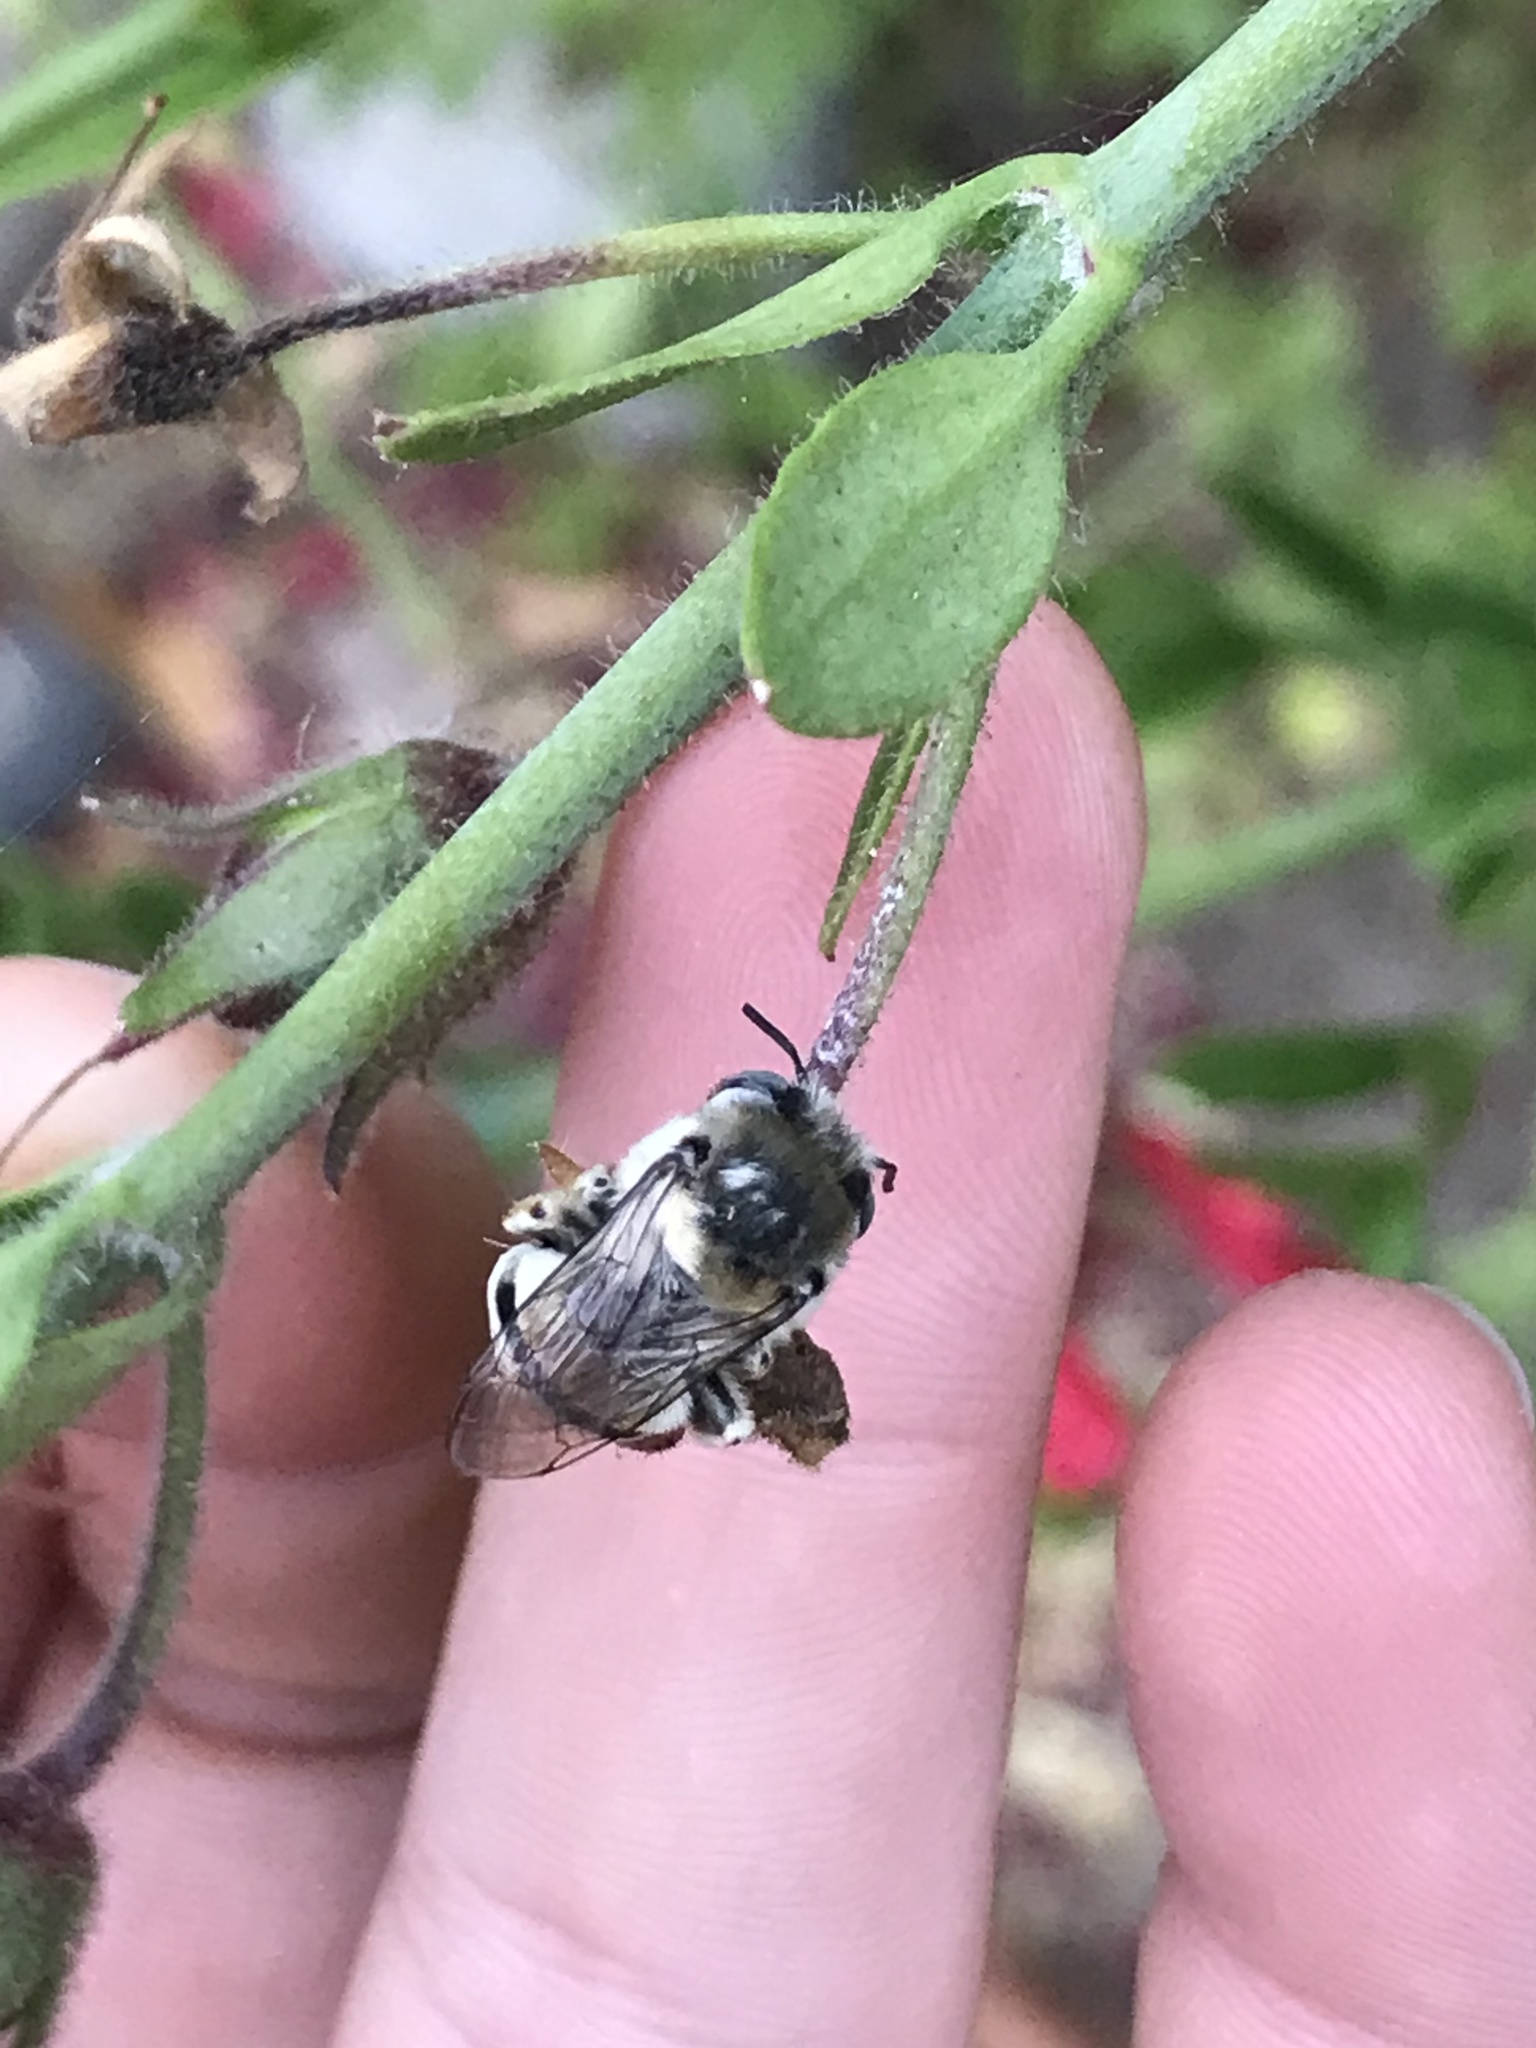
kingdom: Animalia
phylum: Arthropoda
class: Insecta
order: Hymenoptera
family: Apidae
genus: Anthophora
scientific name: Anthophora urbana
